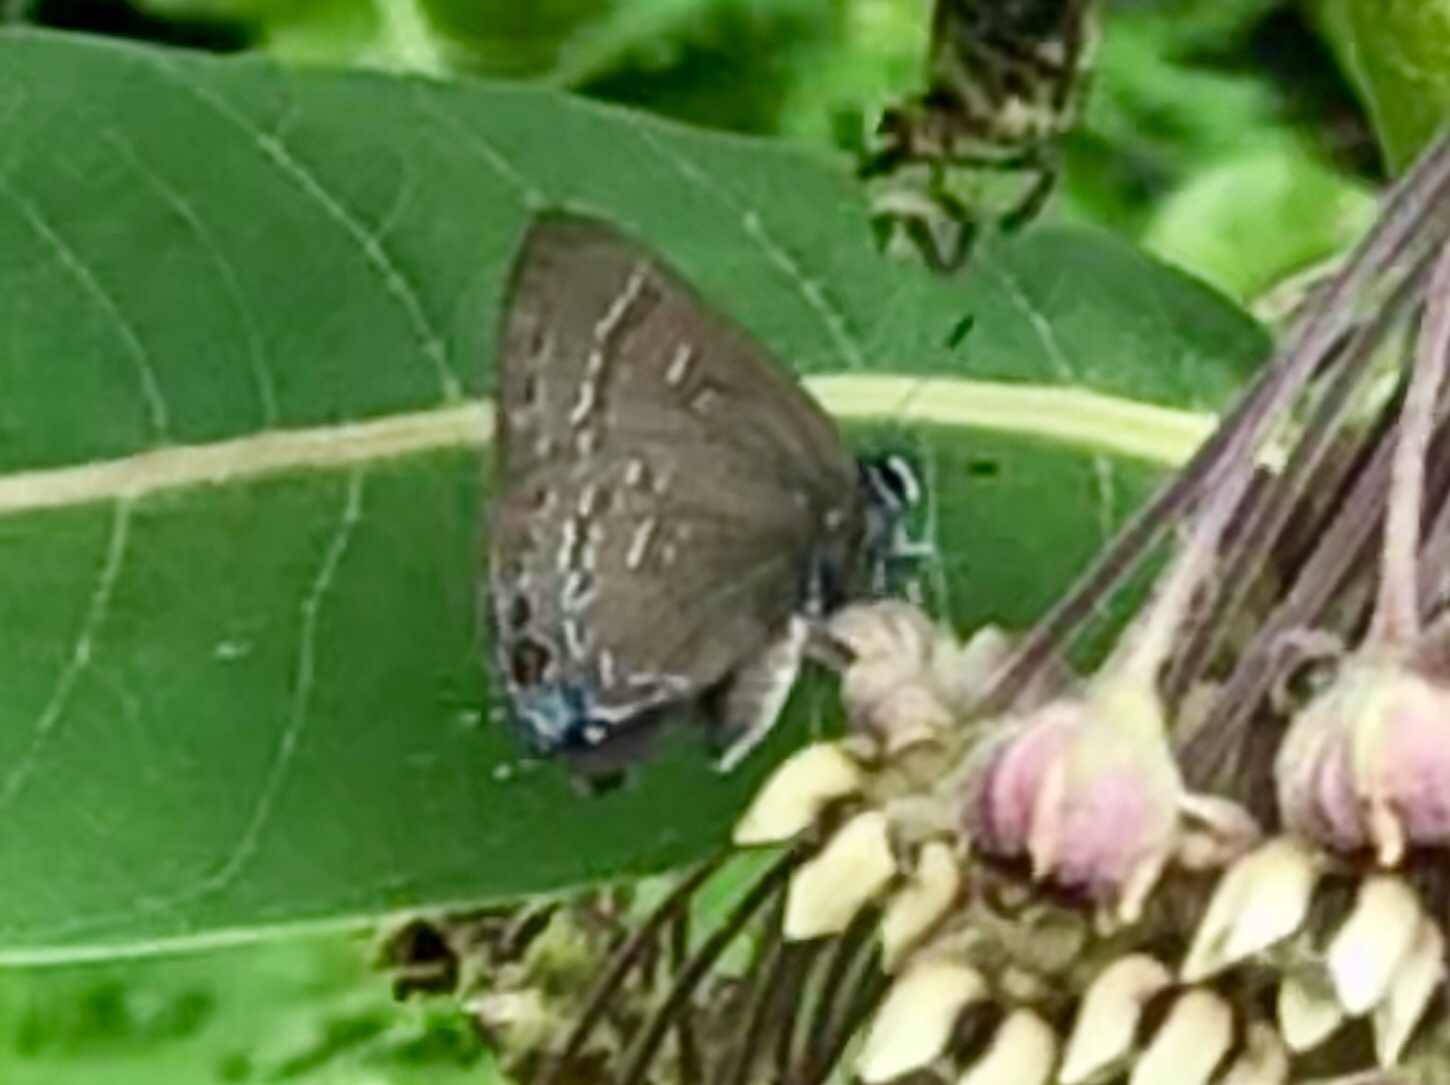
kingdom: Animalia
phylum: Arthropoda
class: Insecta
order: Lepidoptera
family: Lycaenidae
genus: Satyrium
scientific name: Satyrium calanus
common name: Banded hairstreak
